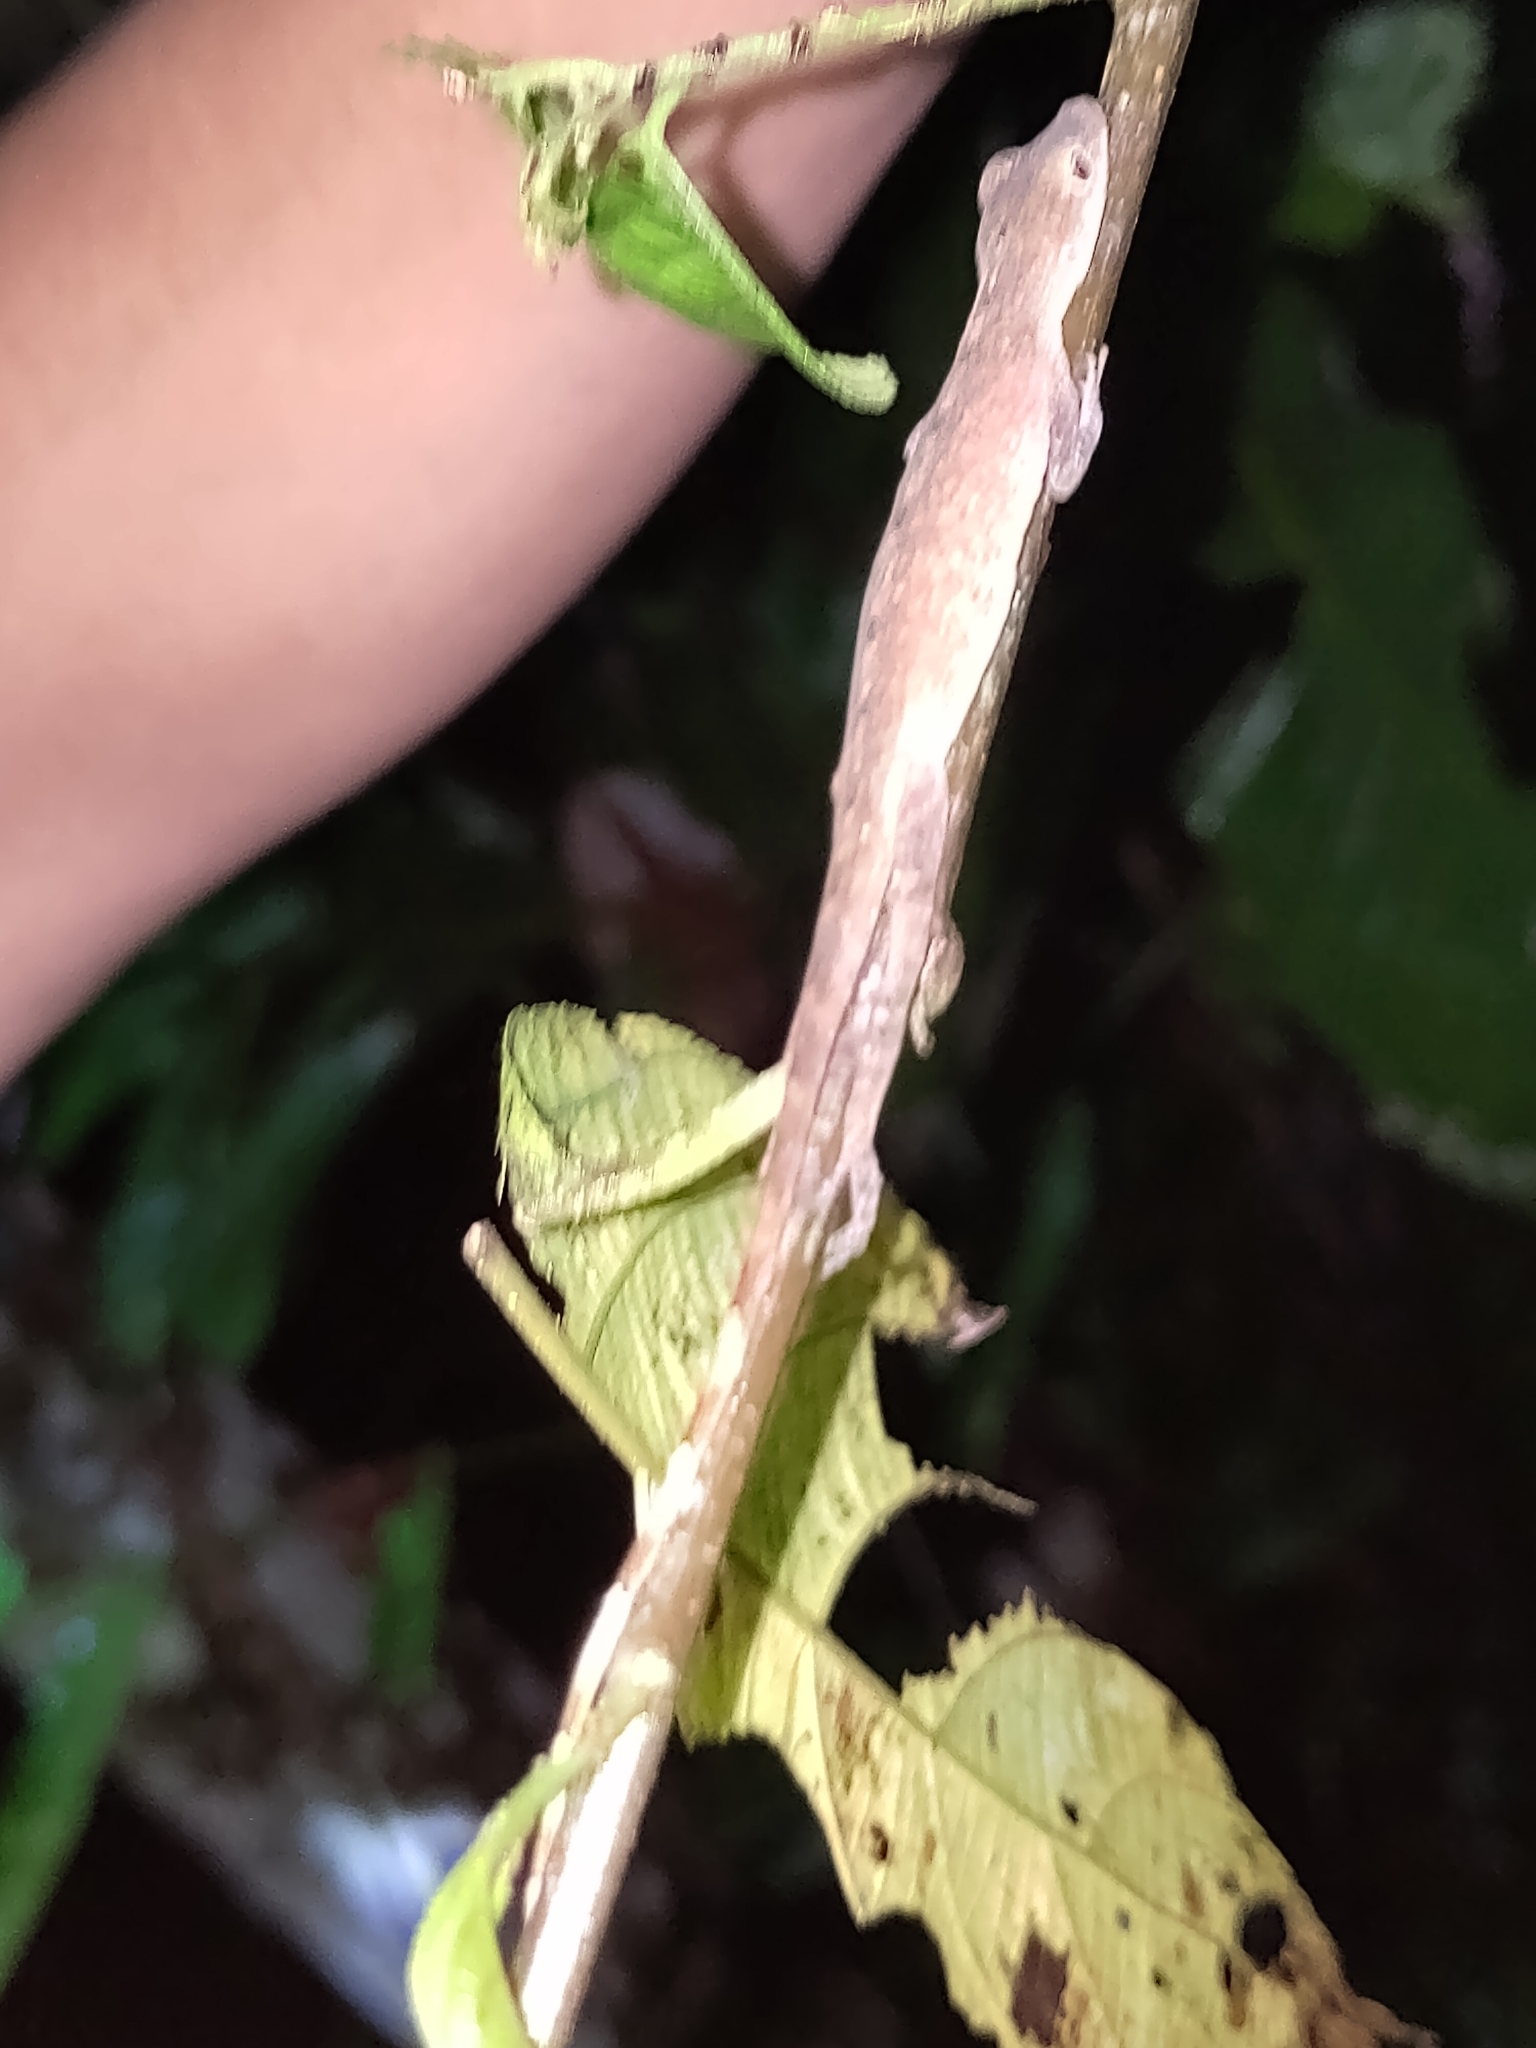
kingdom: Animalia
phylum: Chordata
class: Squamata
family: Dactyloidae
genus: Anolis
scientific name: Anolis fuscoauratus
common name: Brown-eared anole
